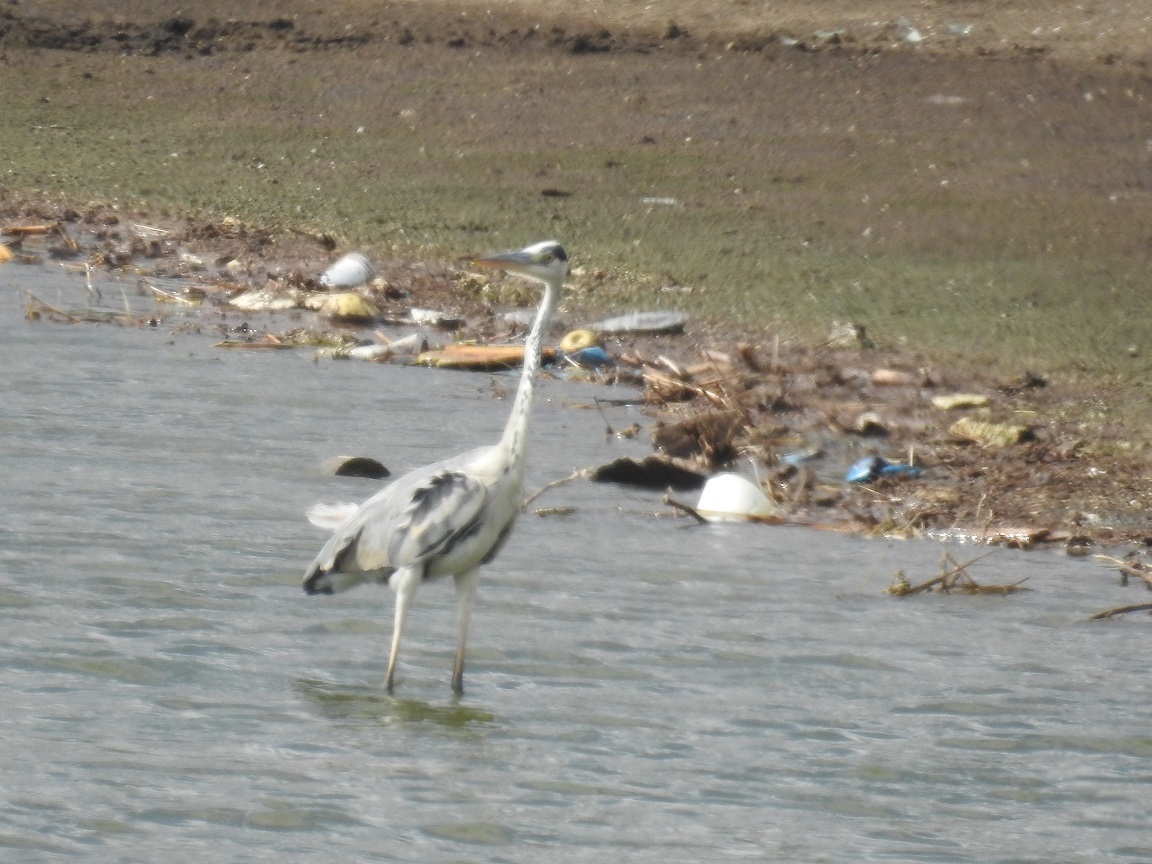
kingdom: Animalia
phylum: Chordata
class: Aves
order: Pelecaniformes
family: Ardeidae
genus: Ardea
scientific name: Ardea cinerea
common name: Grey heron
